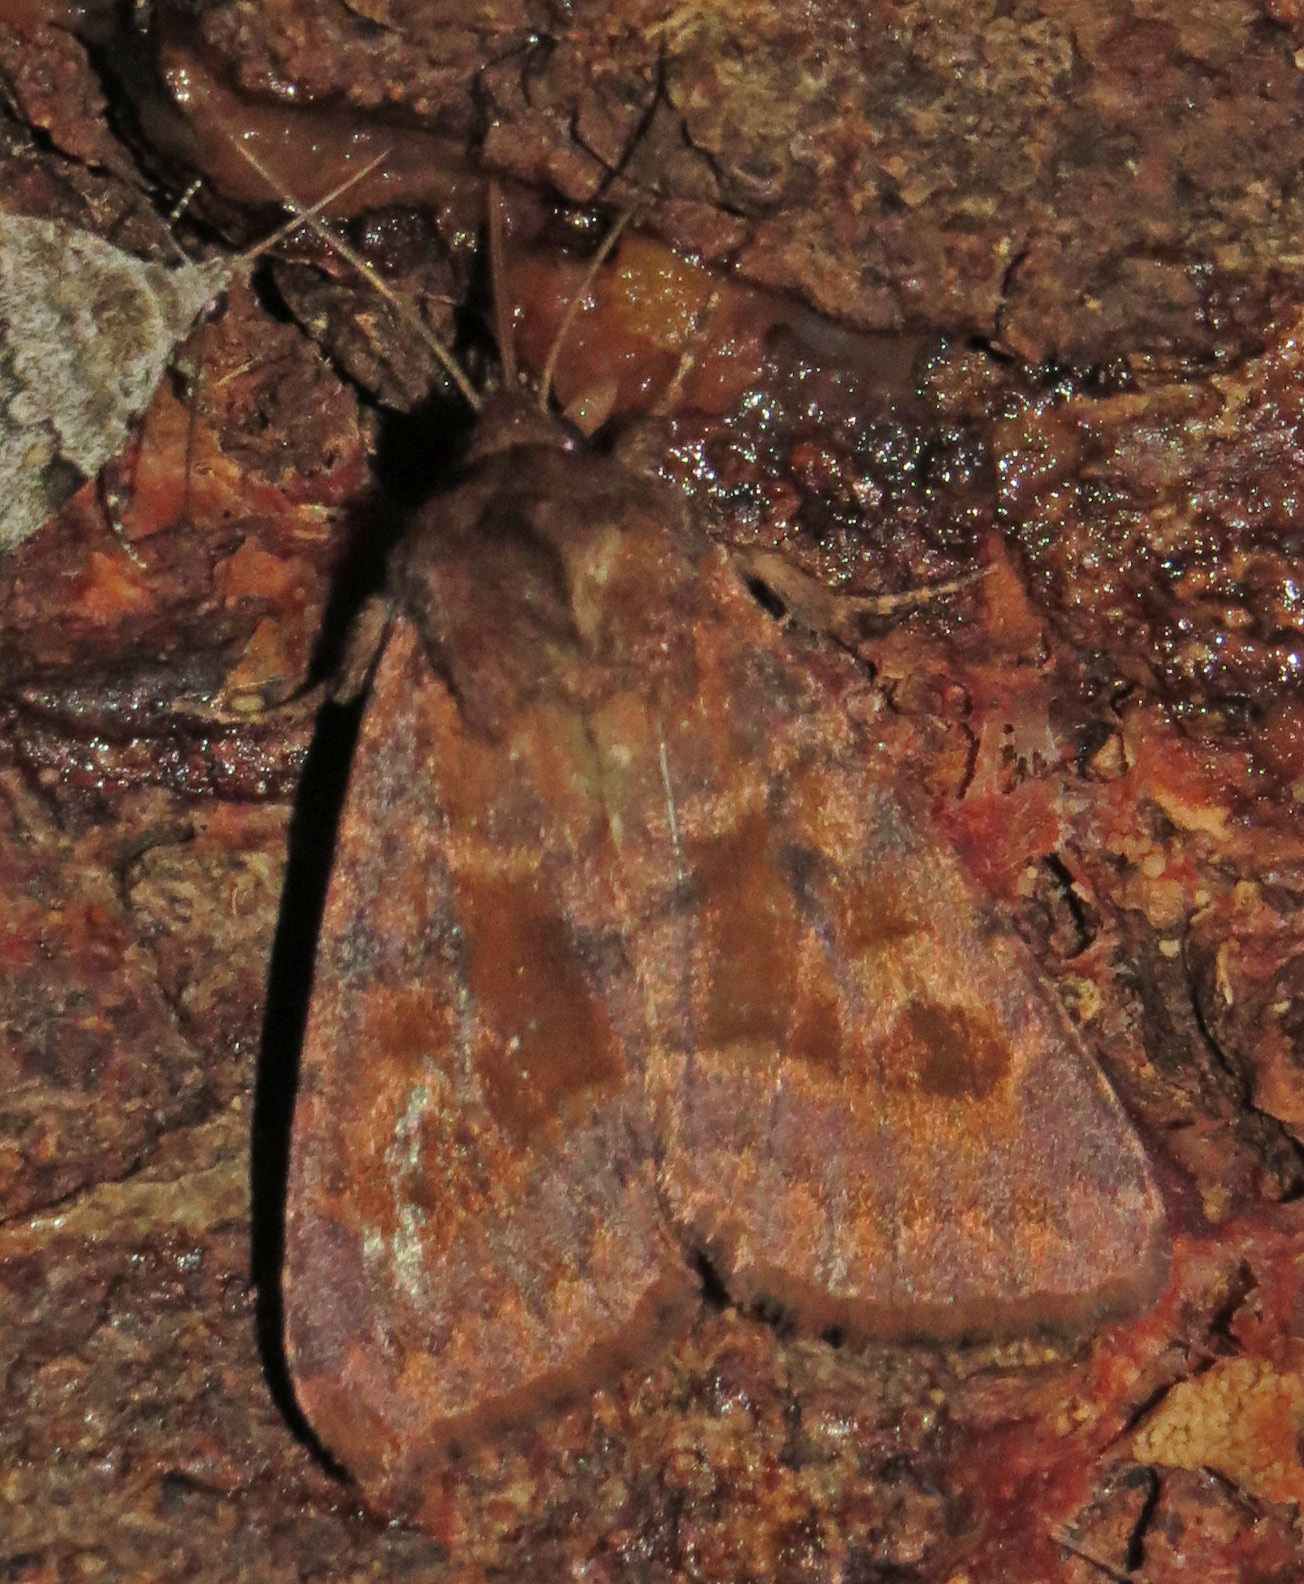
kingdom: Animalia
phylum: Arthropoda
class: Insecta
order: Lepidoptera
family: Noctuidae
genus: Nephelodes
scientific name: Nephelodes minians
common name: Bronzed cutworm
